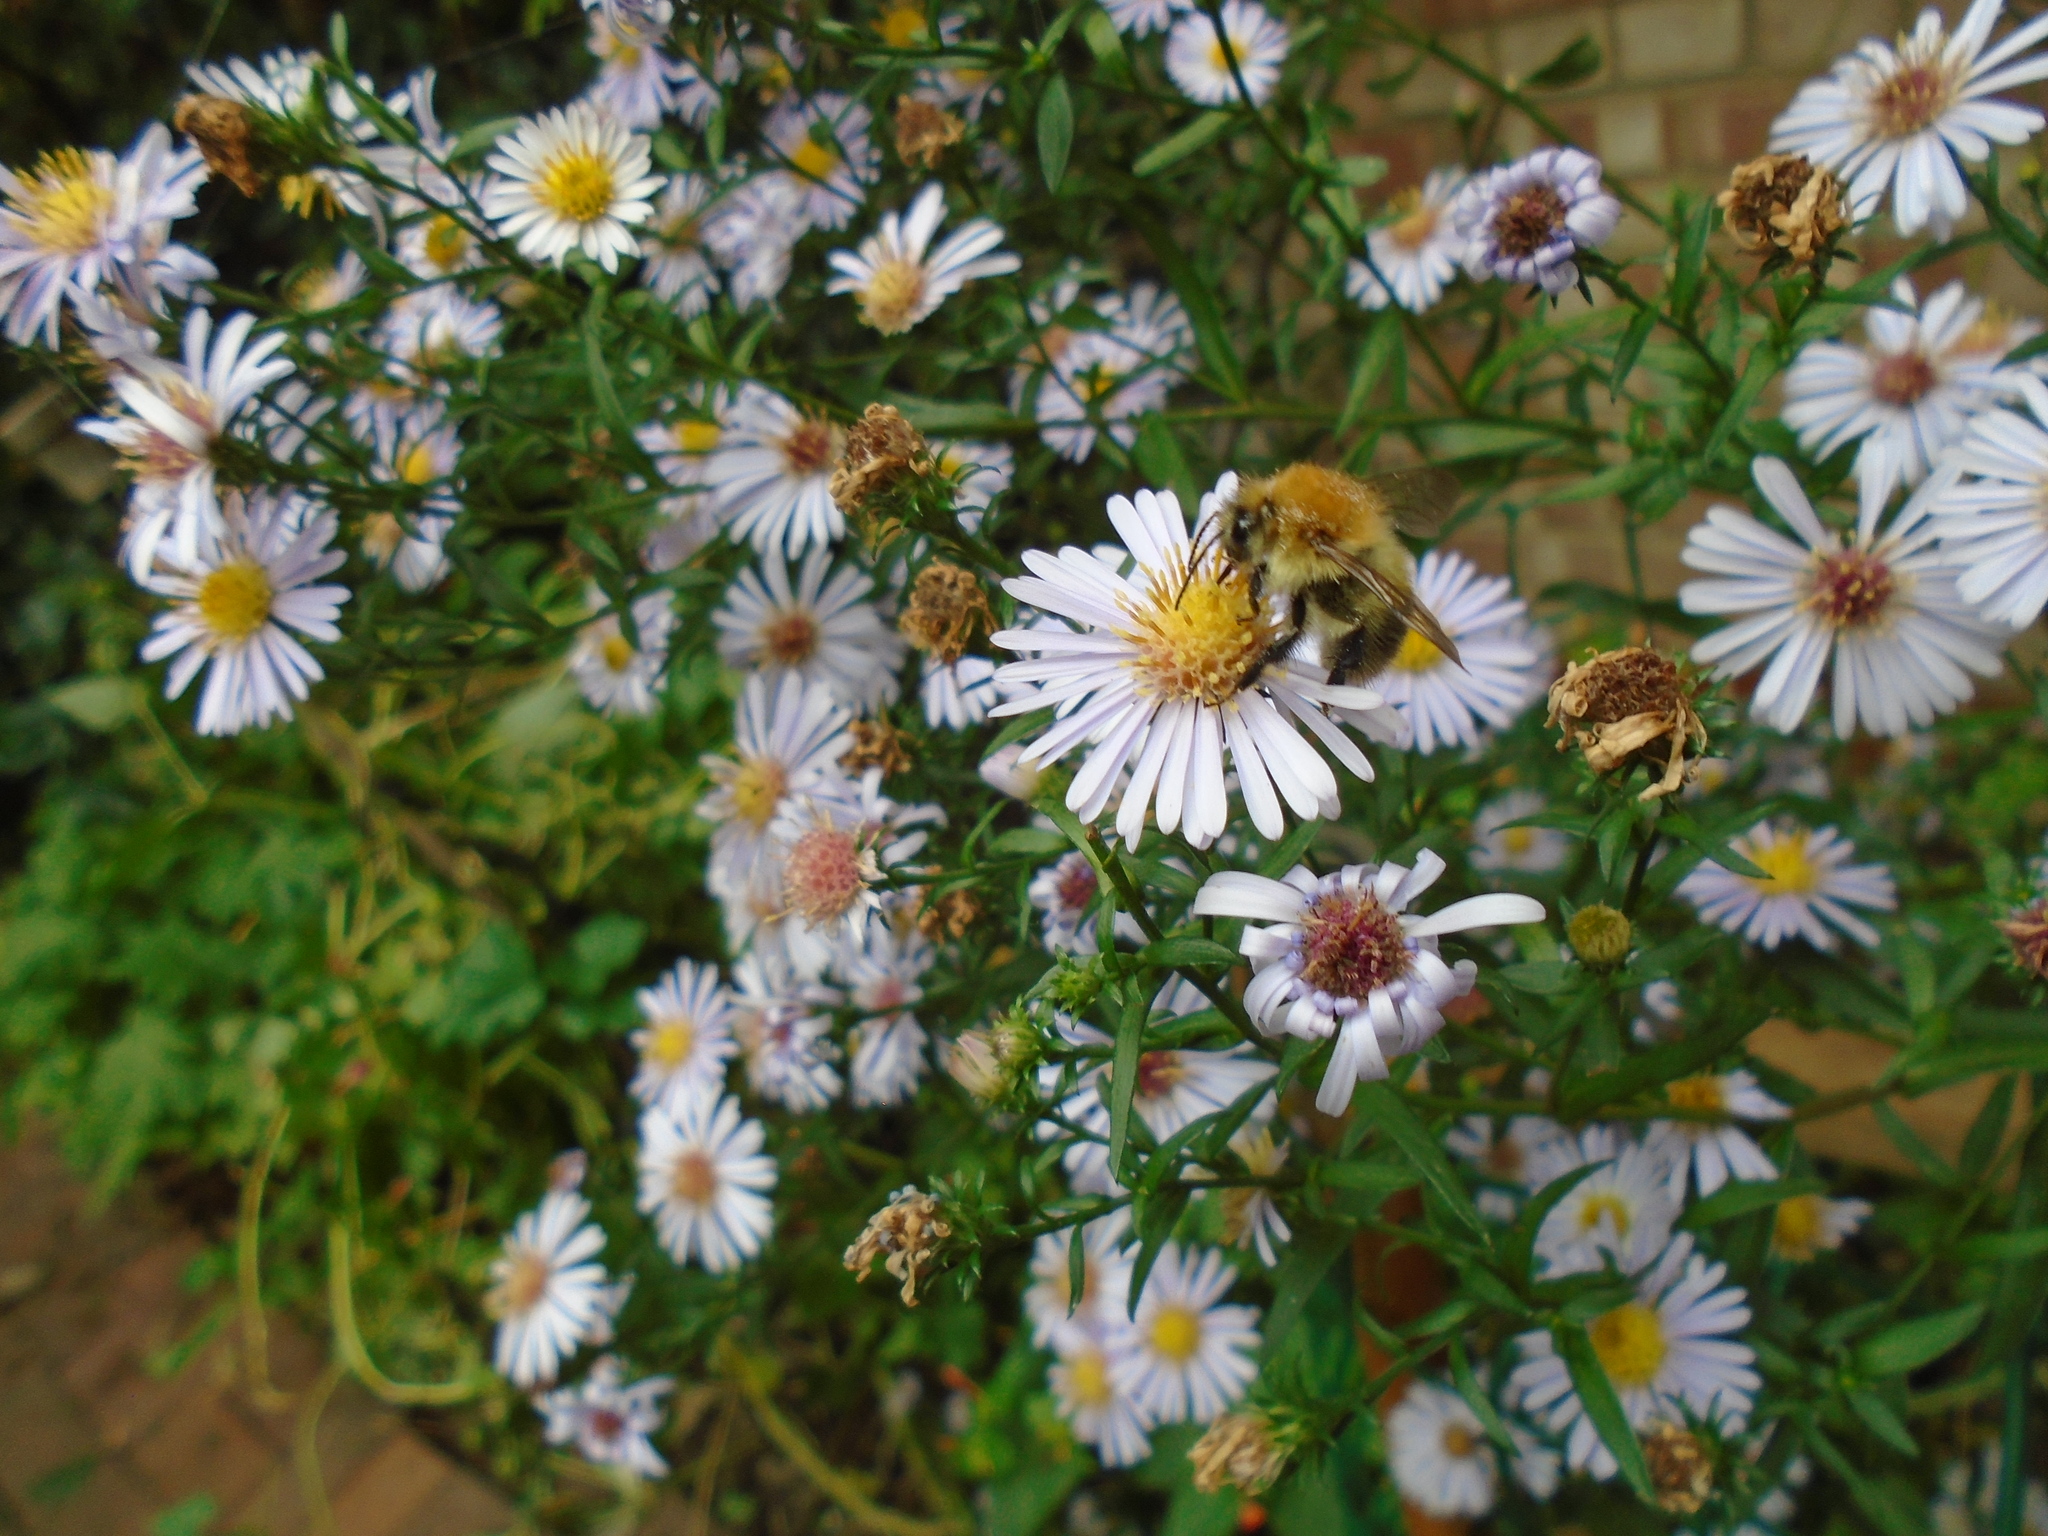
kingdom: Animalia
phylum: Arthropoda
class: Insecta
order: Hymenoptera
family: Apidae
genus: Bombus
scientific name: Bombus pascuorum
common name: Common carder bee
